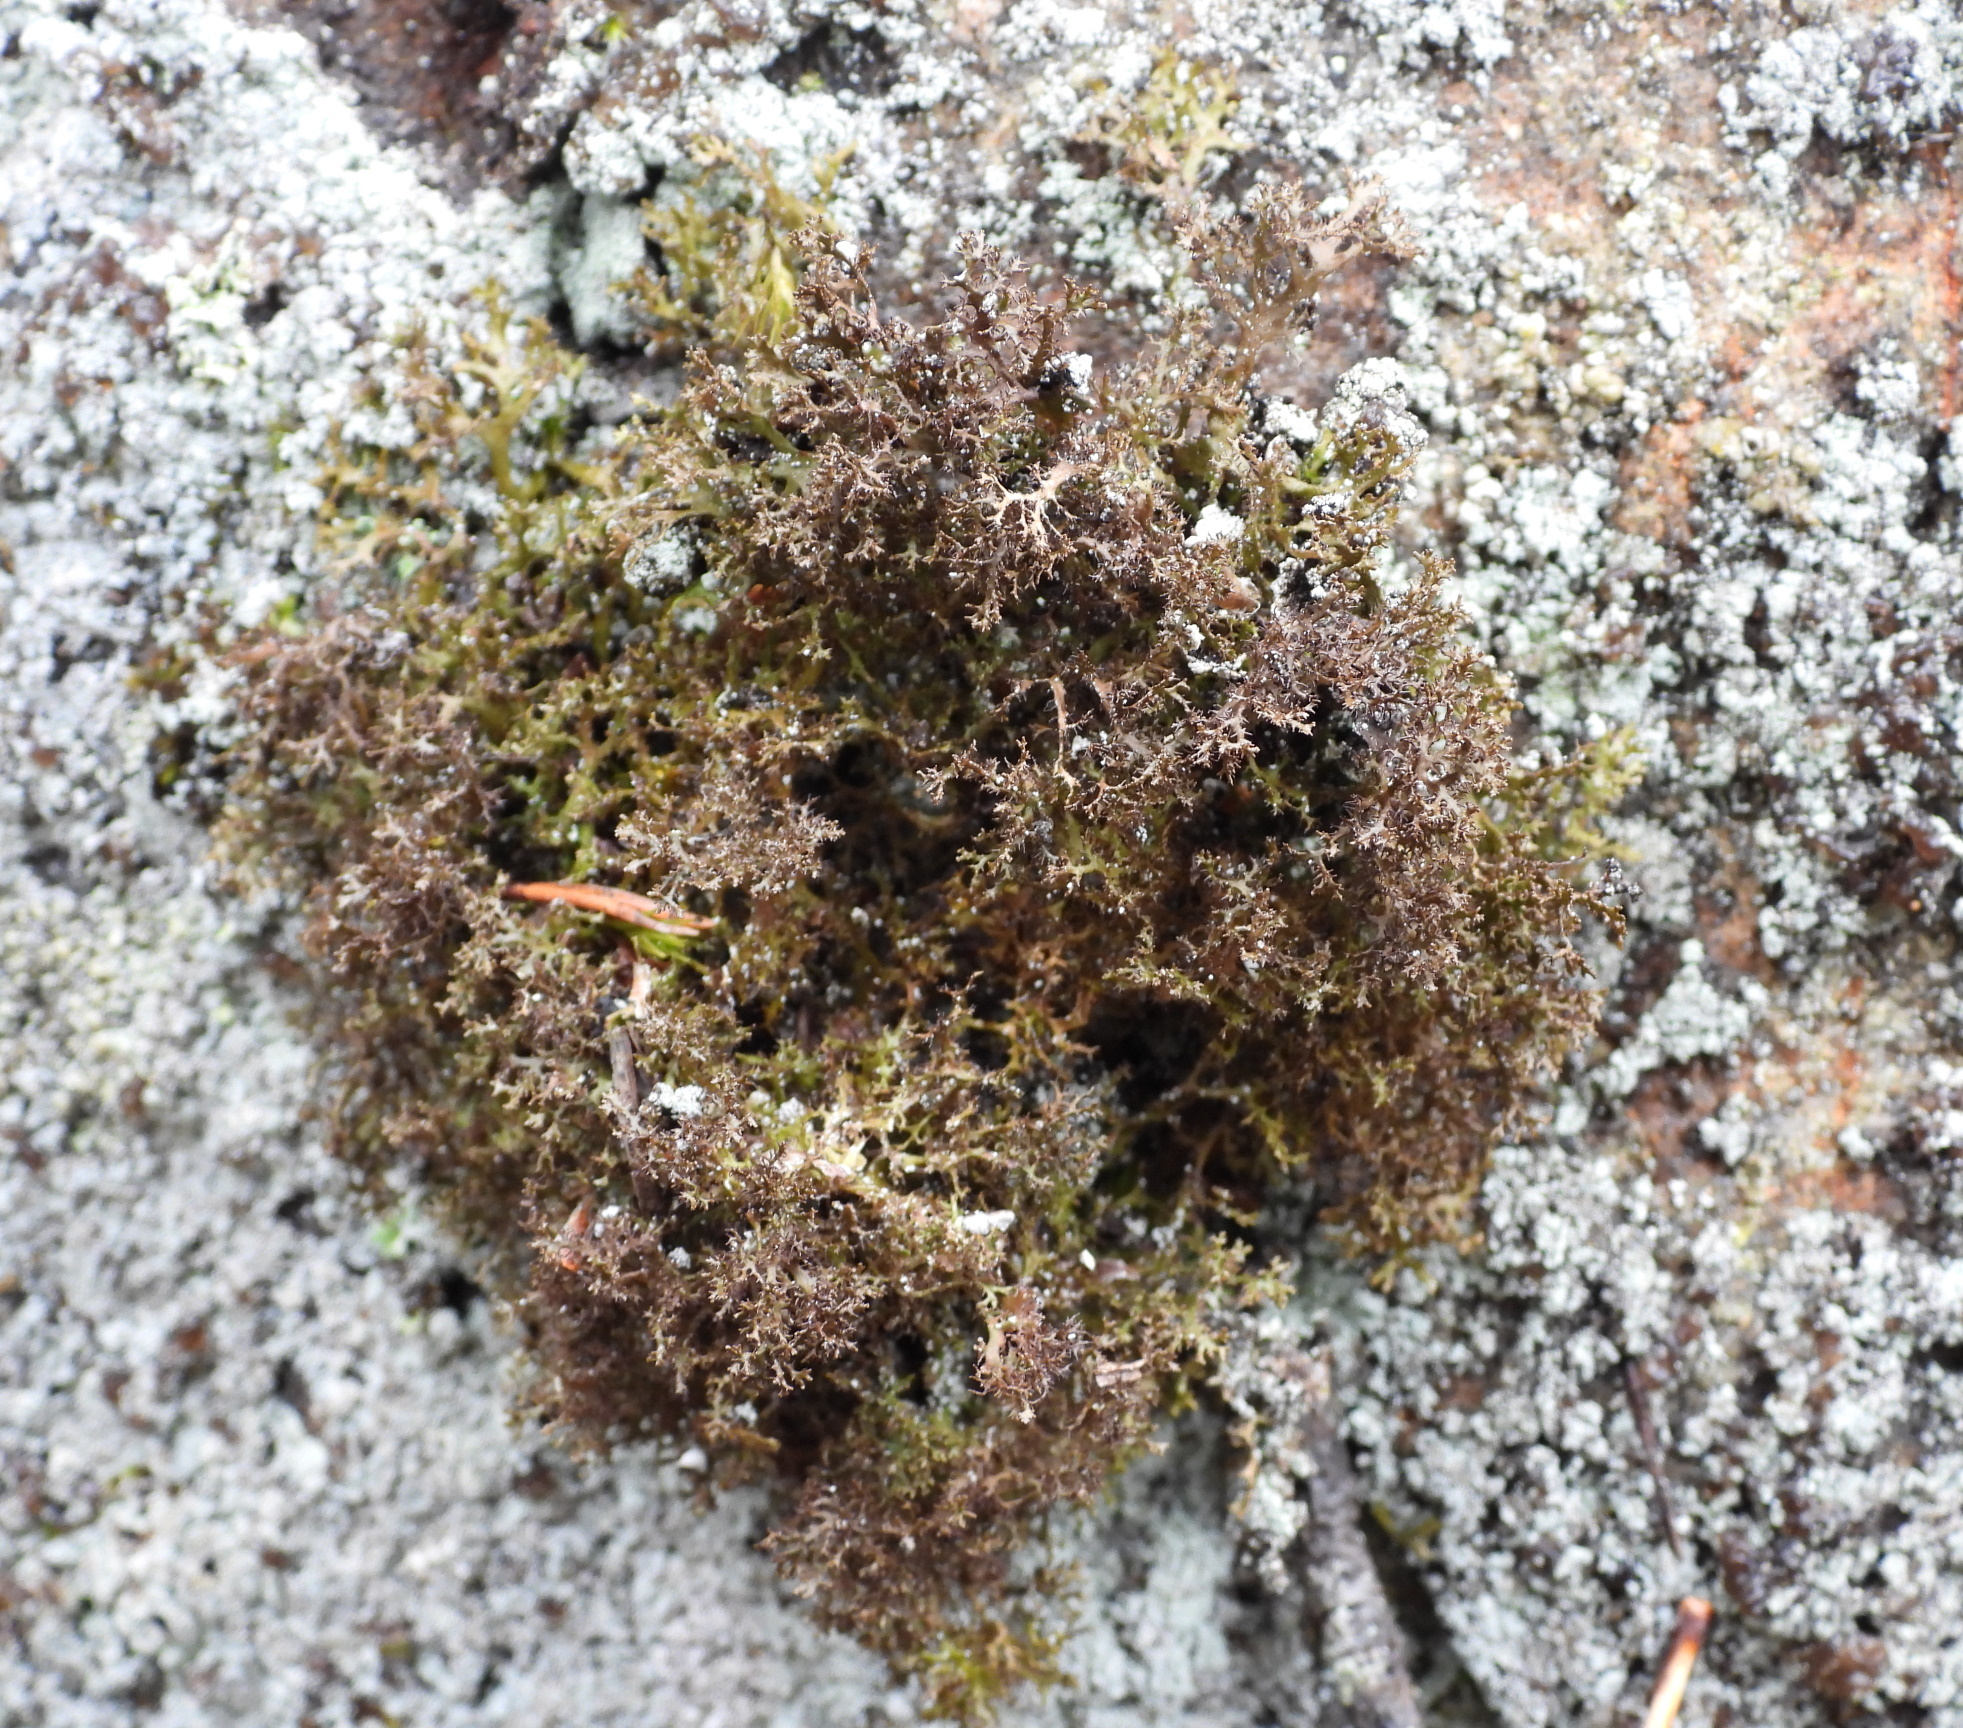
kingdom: Fungi
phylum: Ascomycota
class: Lecanoromycetes
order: Lecanorales
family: Parmeliaceae
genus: Cetraria
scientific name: Cetraria odontella
